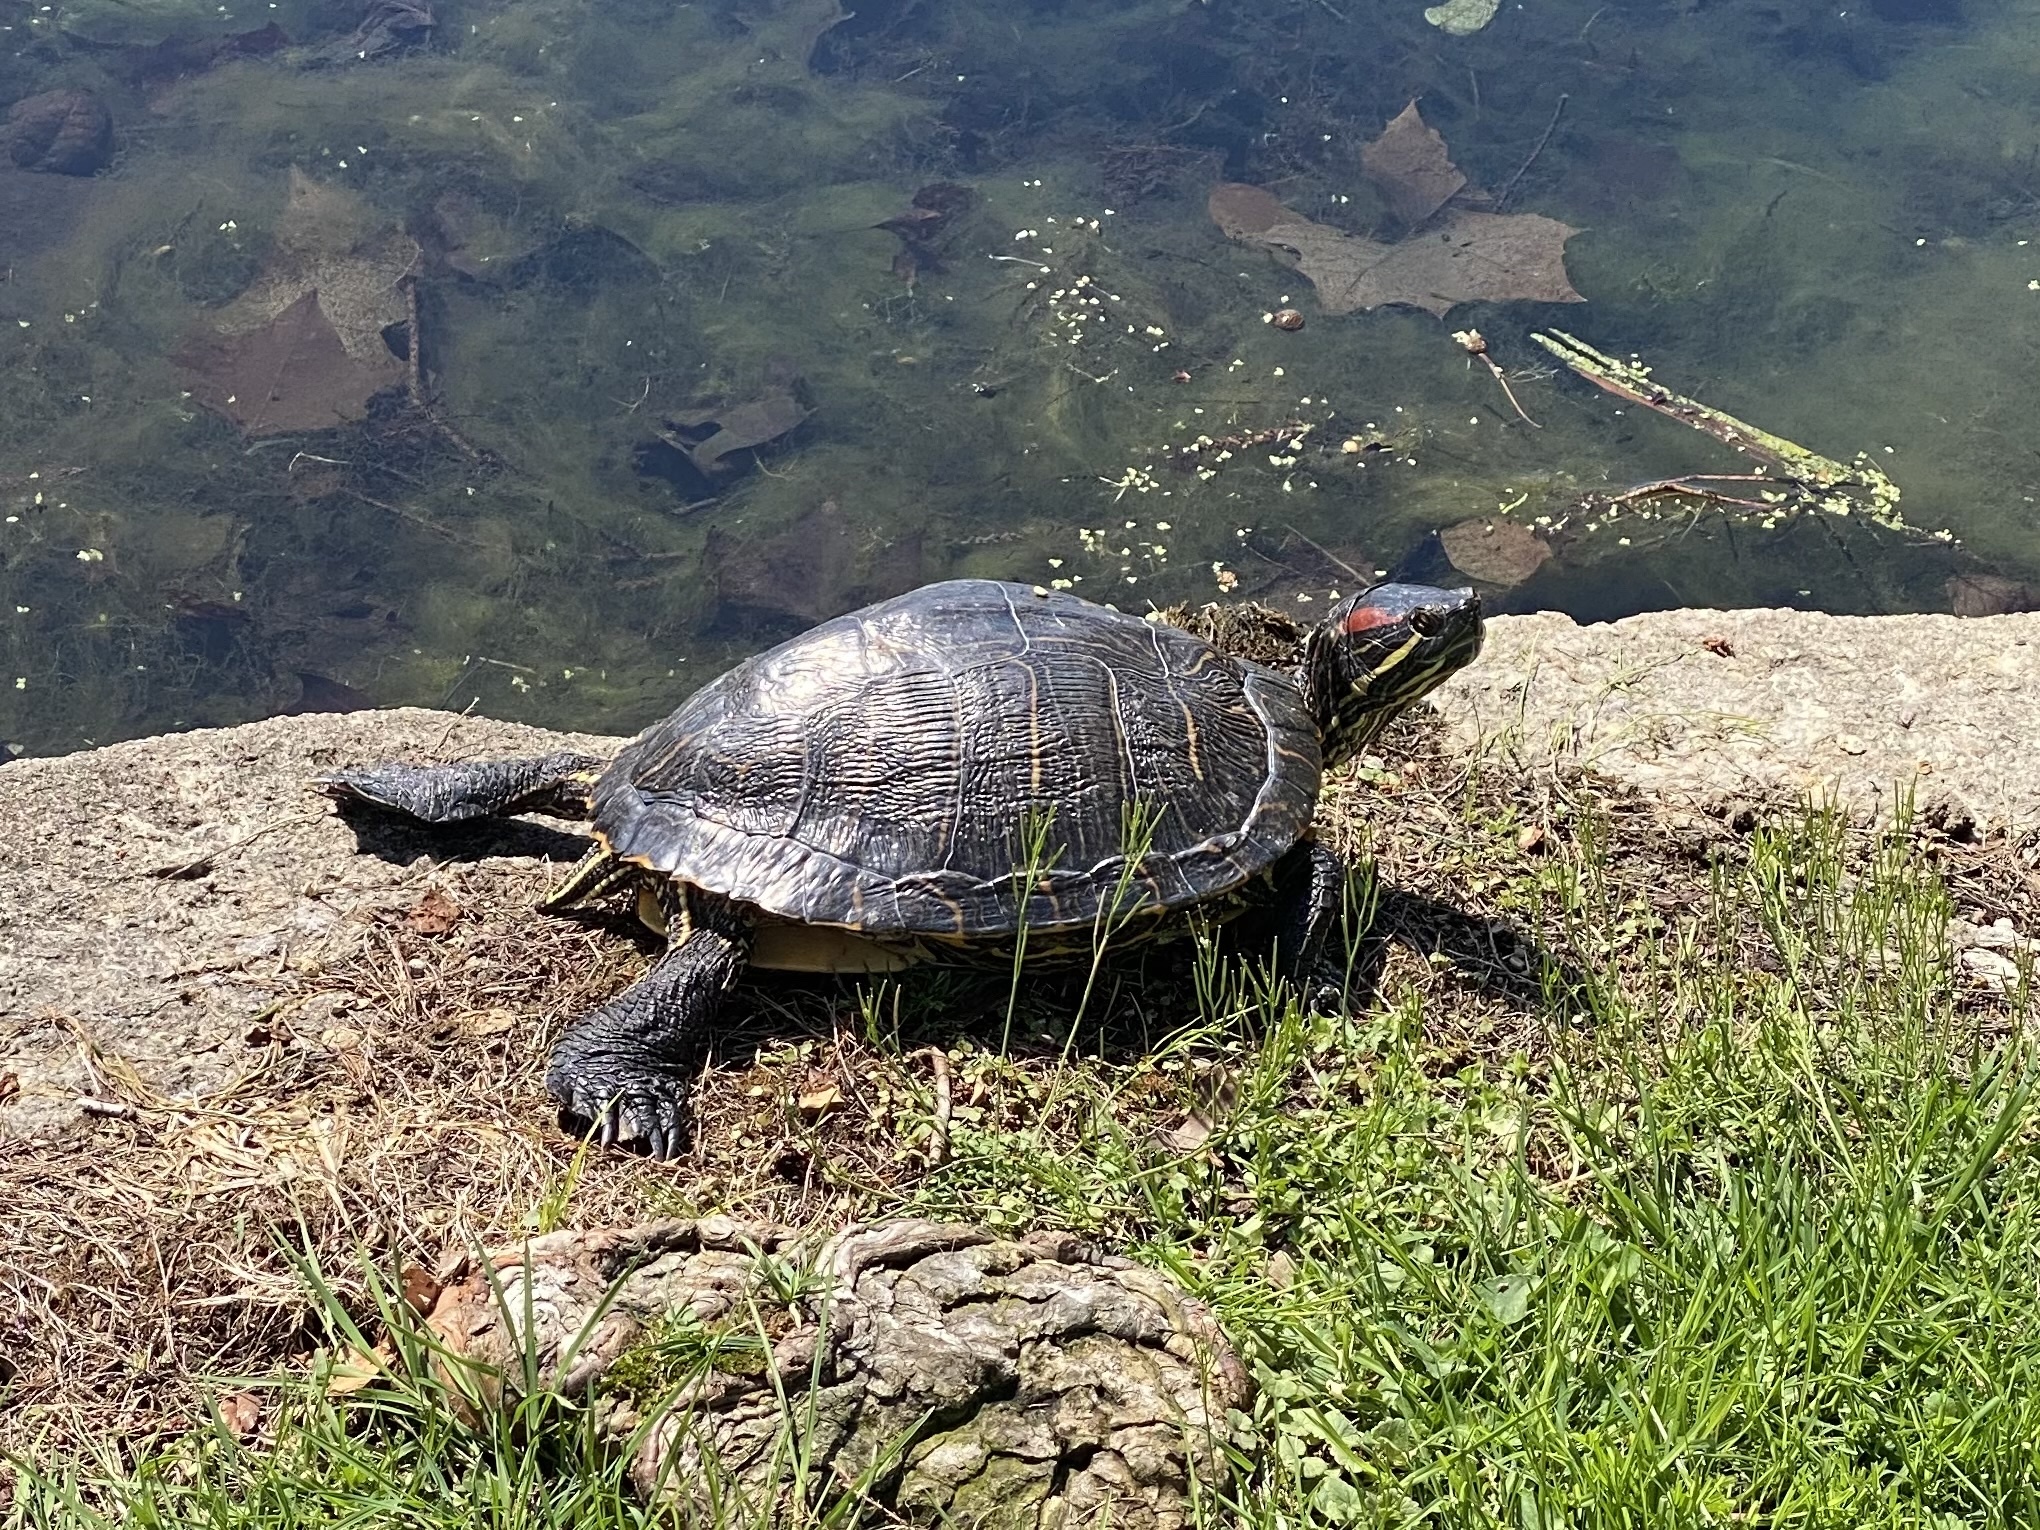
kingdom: Animalia
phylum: Chordata
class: Testudines
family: Emydidae
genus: Trachemys
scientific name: Trachemys scripta
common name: Slider
